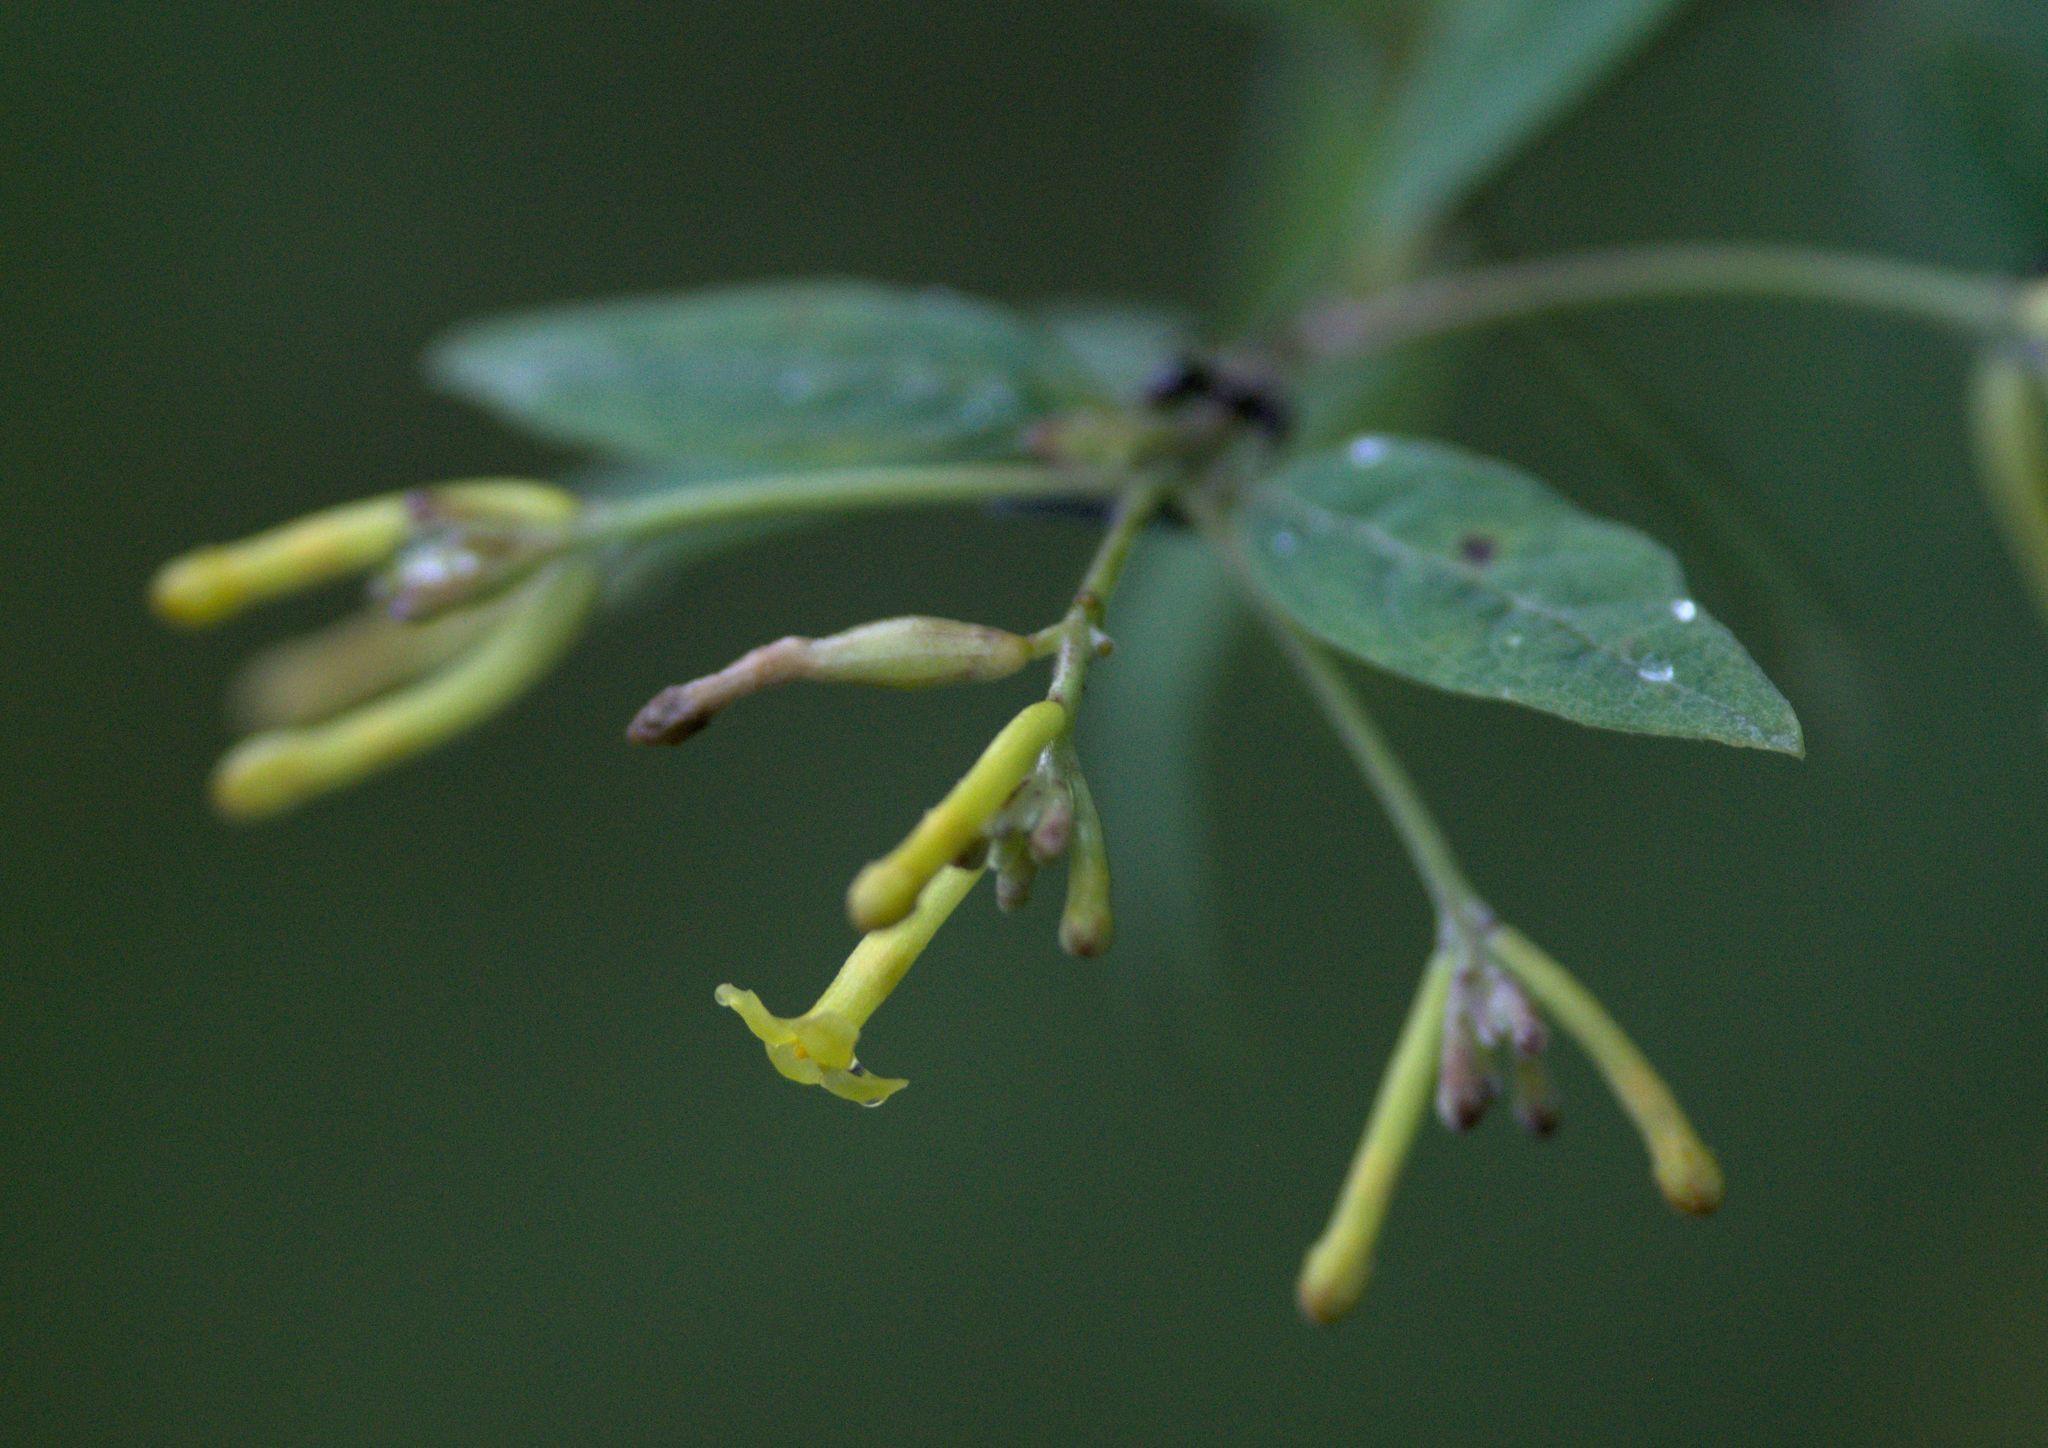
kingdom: Plantae
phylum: Tracheophyta
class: Magnoliopsida
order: Malvales
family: Thymelaeaceae
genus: Wikstroemia
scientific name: Wikstroemia canescens
